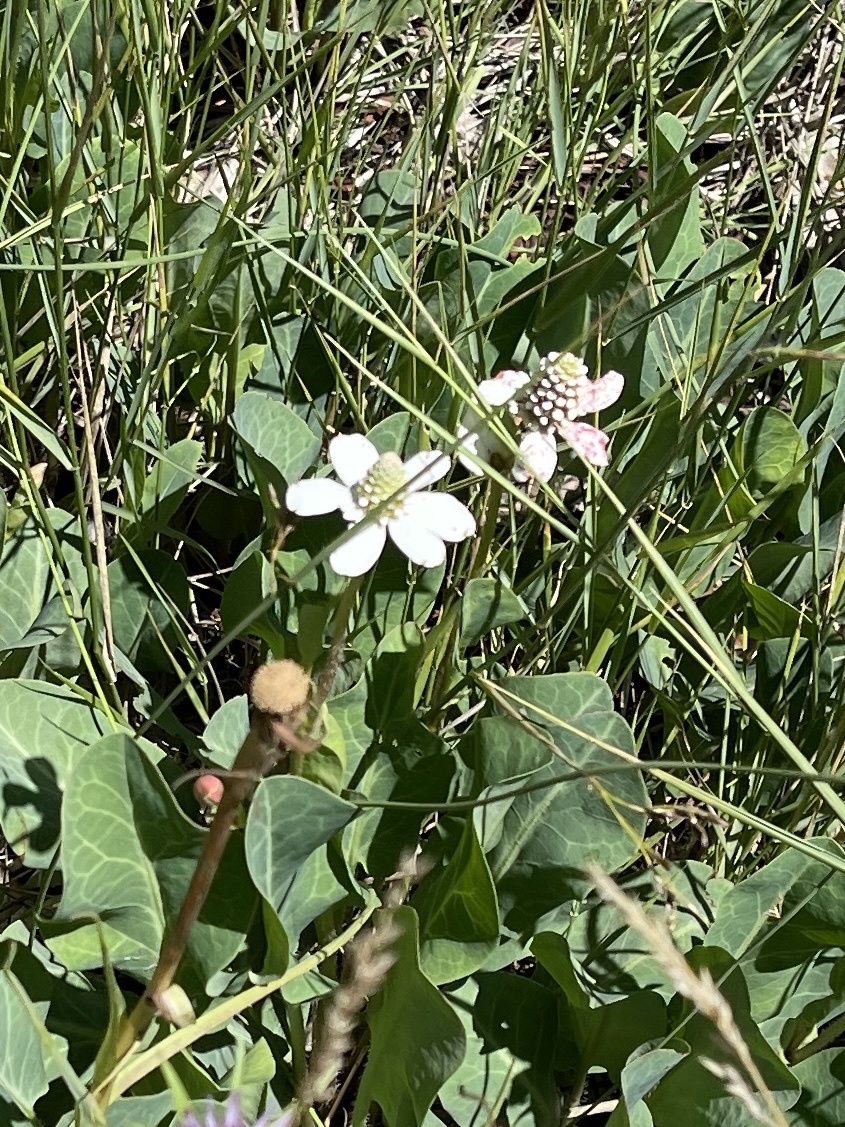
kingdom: Plantae
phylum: Tracheophyta
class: Magnoliopsida
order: Piperales
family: Saururaceae
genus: Anemopsis
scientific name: Anemopsis californica
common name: Apache-beads
